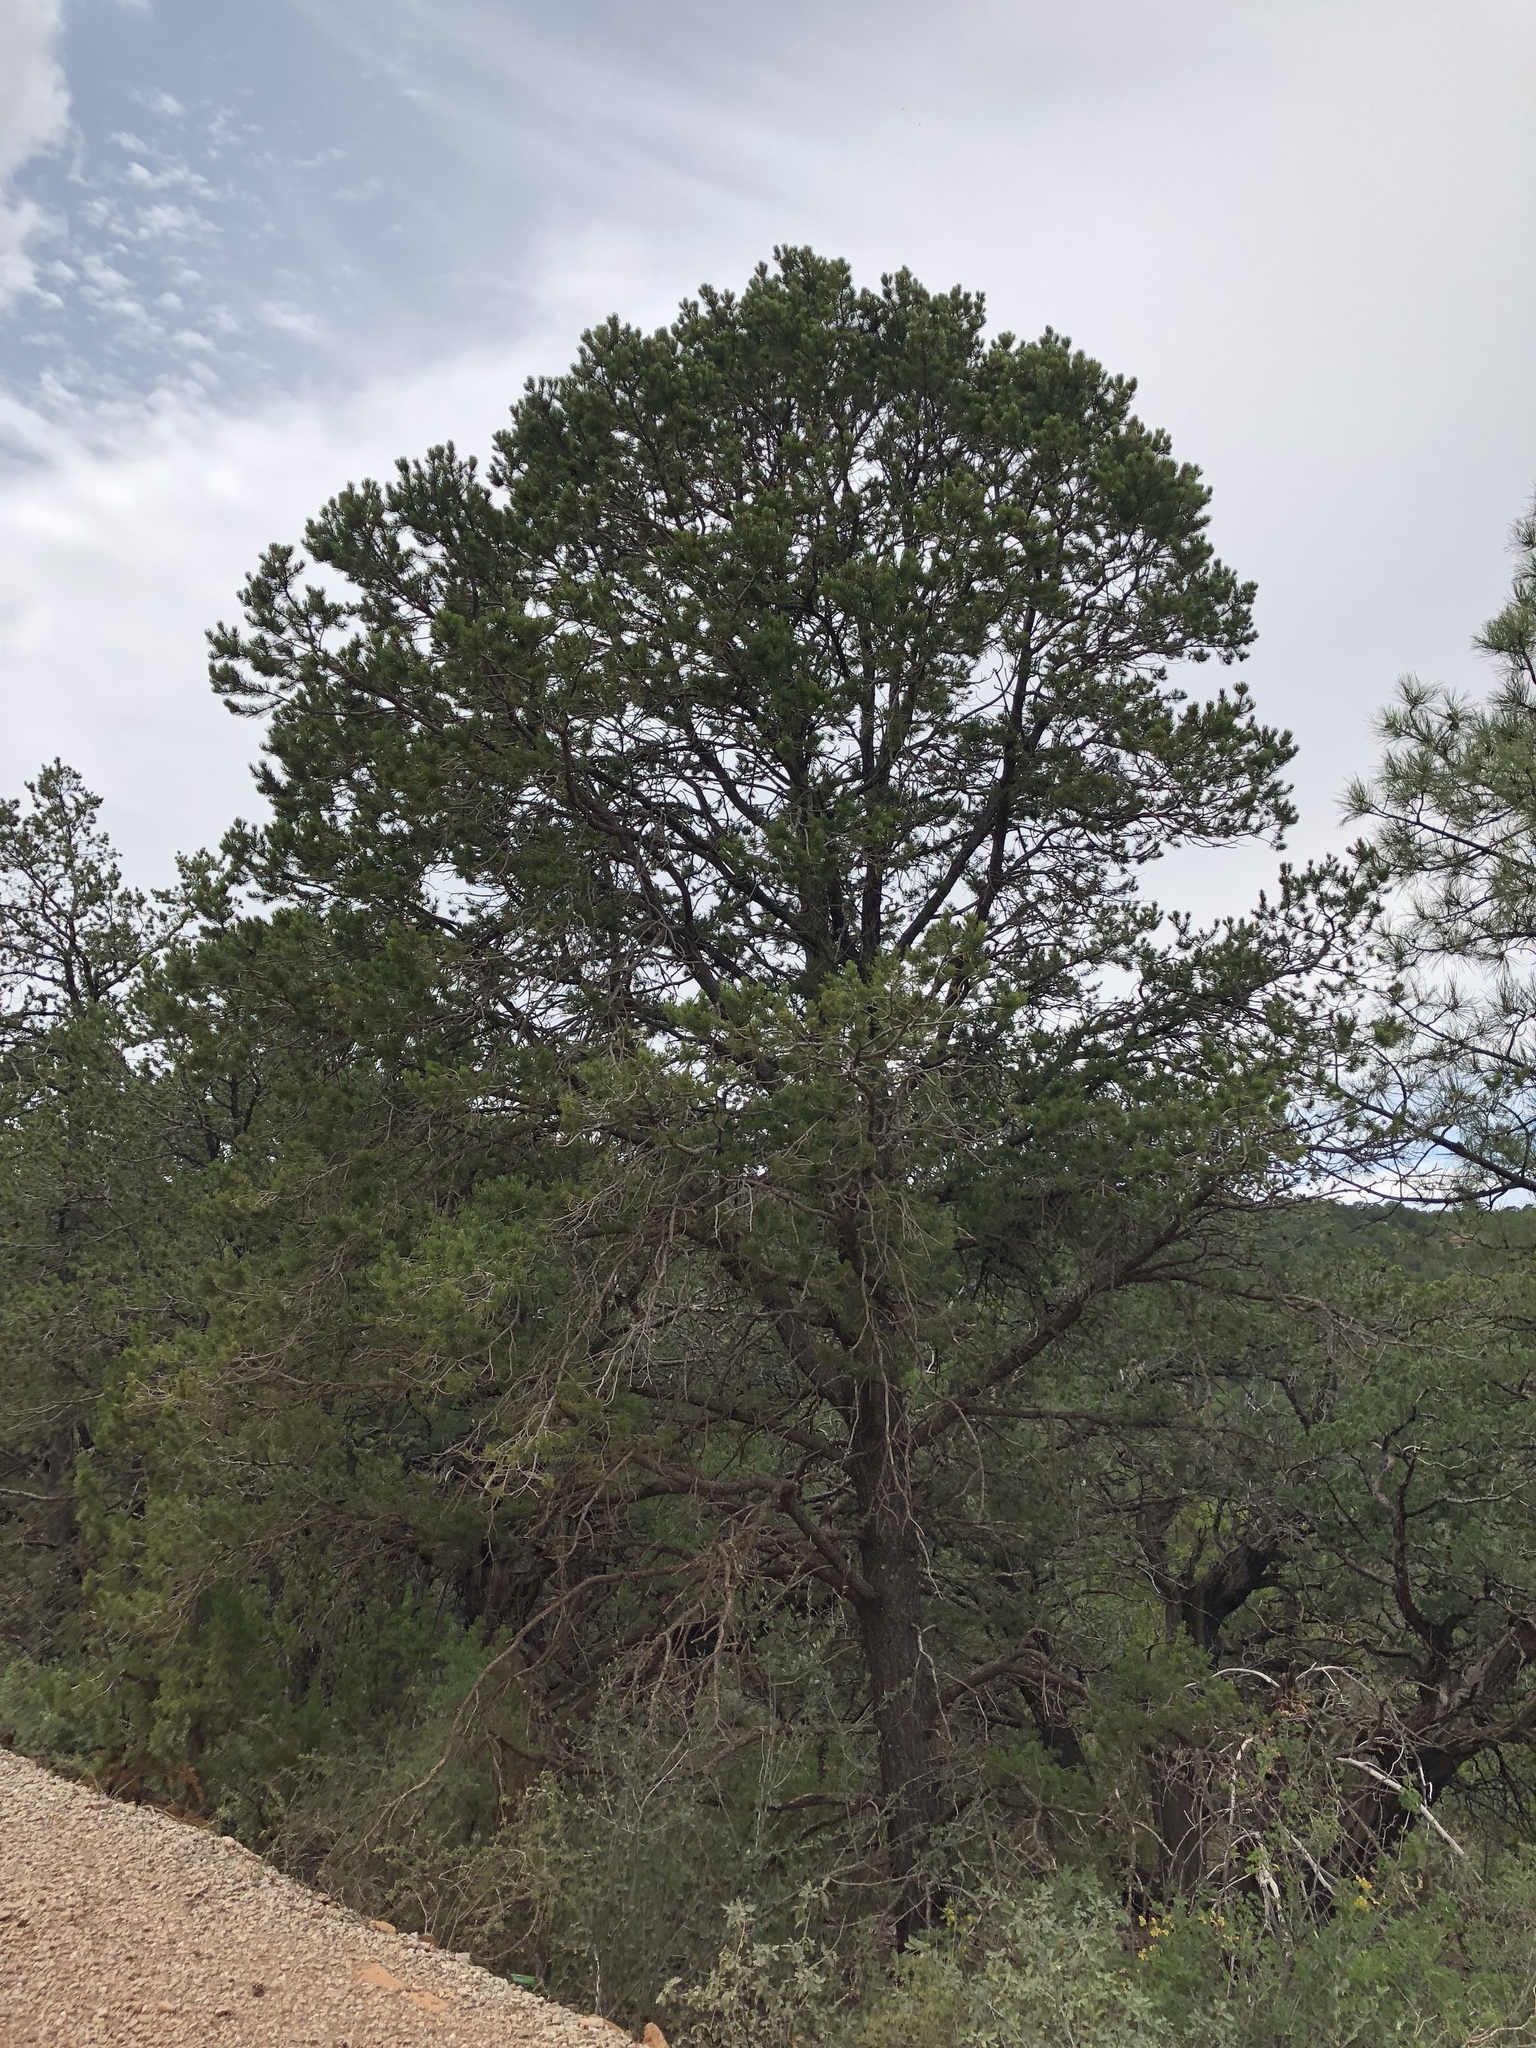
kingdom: Plantae
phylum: Tracheophyta
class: Pinopsida
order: Pinales
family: Pinaceae
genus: Pinus
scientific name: Pinus edulis
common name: Colorado pinyon
